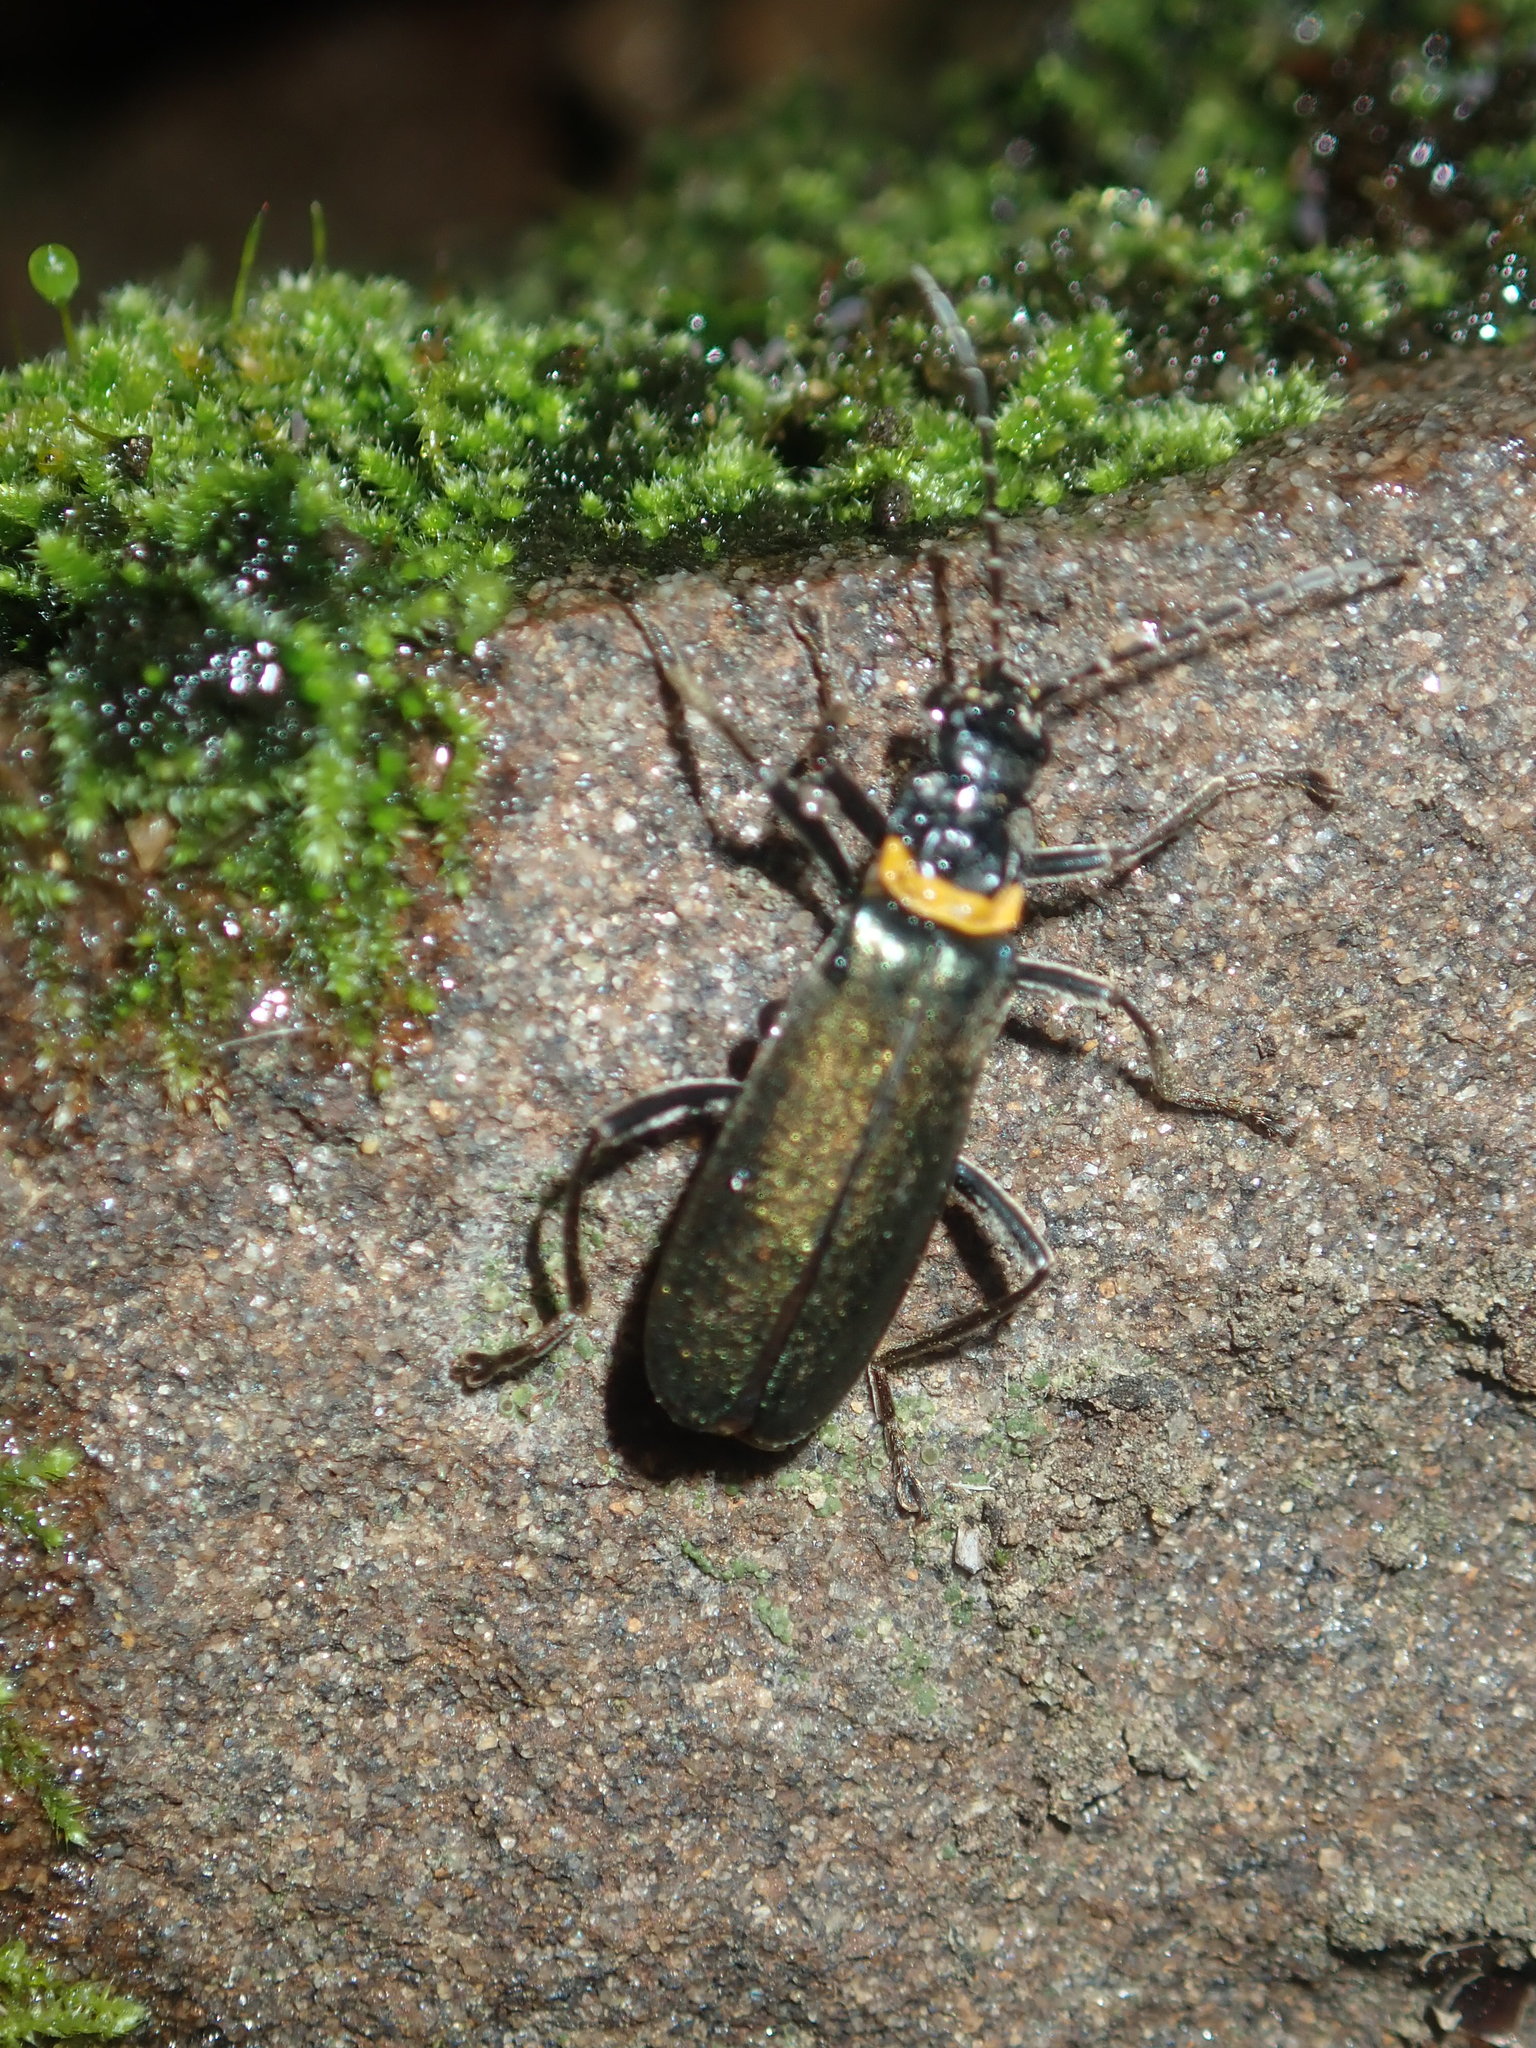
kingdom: Animalia
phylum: Arthropoda
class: Insecta
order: Coleoptera
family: Cantharidae
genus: Chauliognathus
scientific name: Chauliognathus
